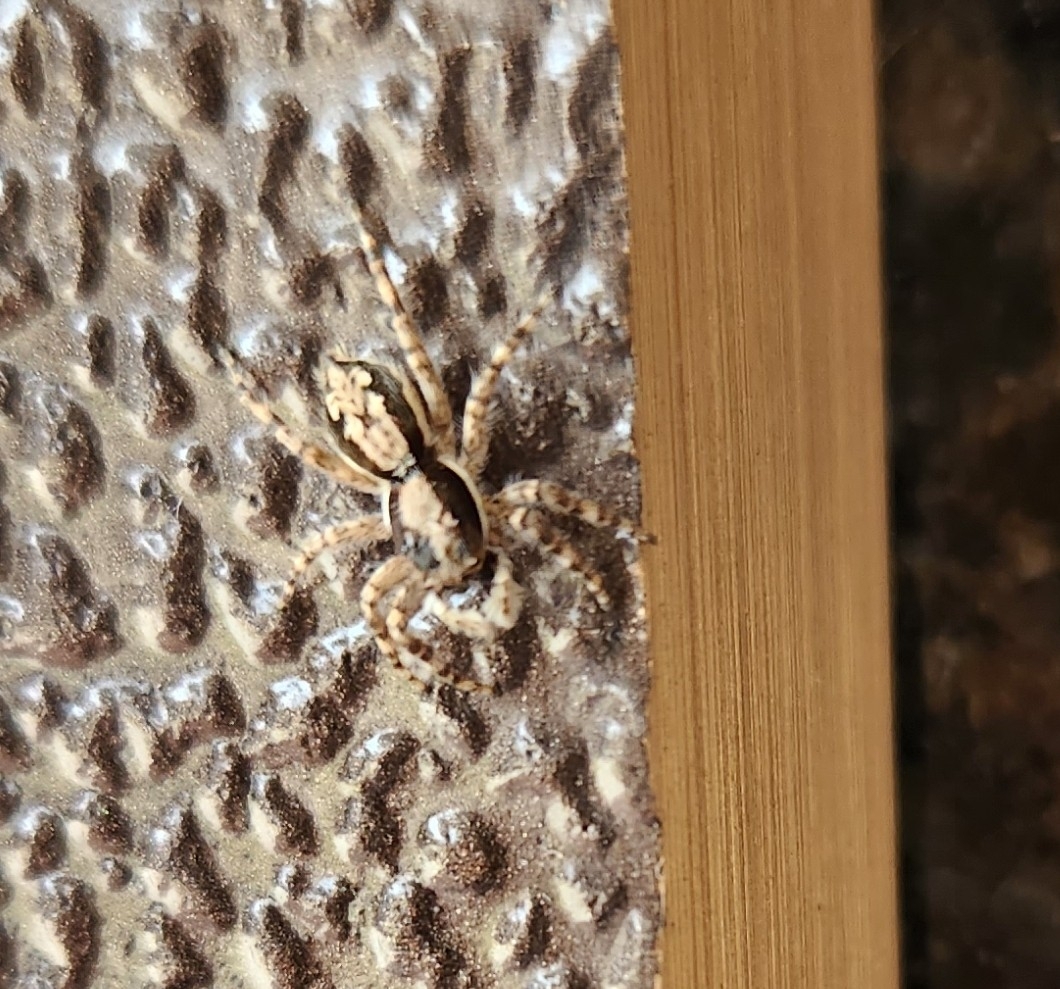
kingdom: Animalia
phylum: Arthropoda
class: Arachnida
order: Araneae
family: Salticidae
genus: Menemerus
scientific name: Menemerus bivittatus
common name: Gray wall jumper
